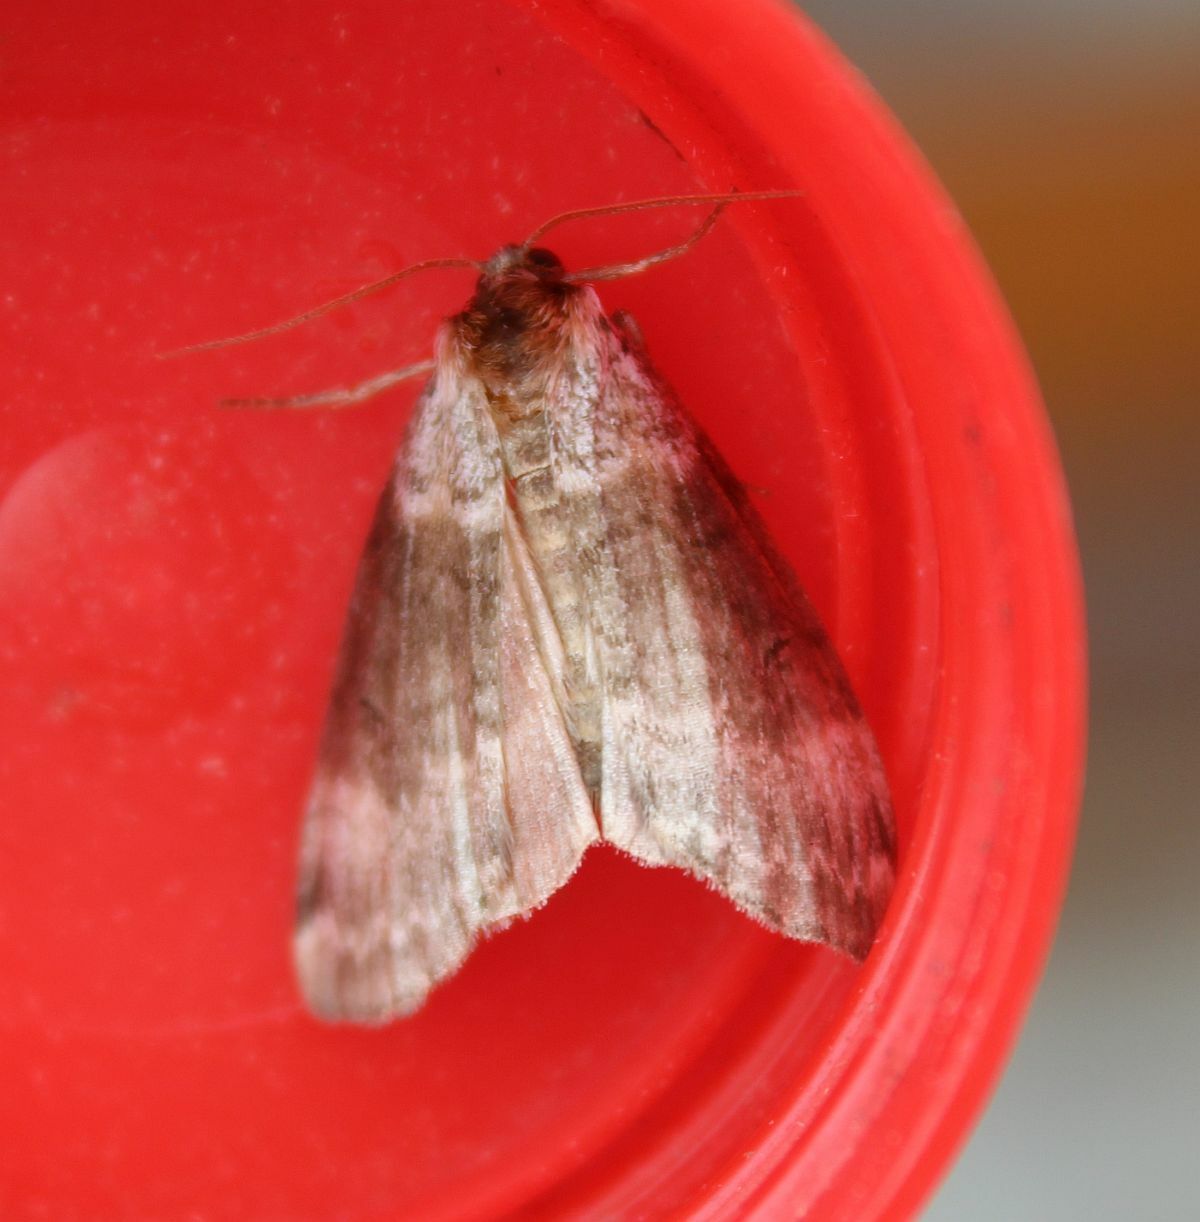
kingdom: Animalia
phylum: Arthropoda
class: Insecta
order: Lepidoptera
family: Drepanidae
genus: Tetheella
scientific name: Tetheella fluctuosa
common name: Satin lutestring
